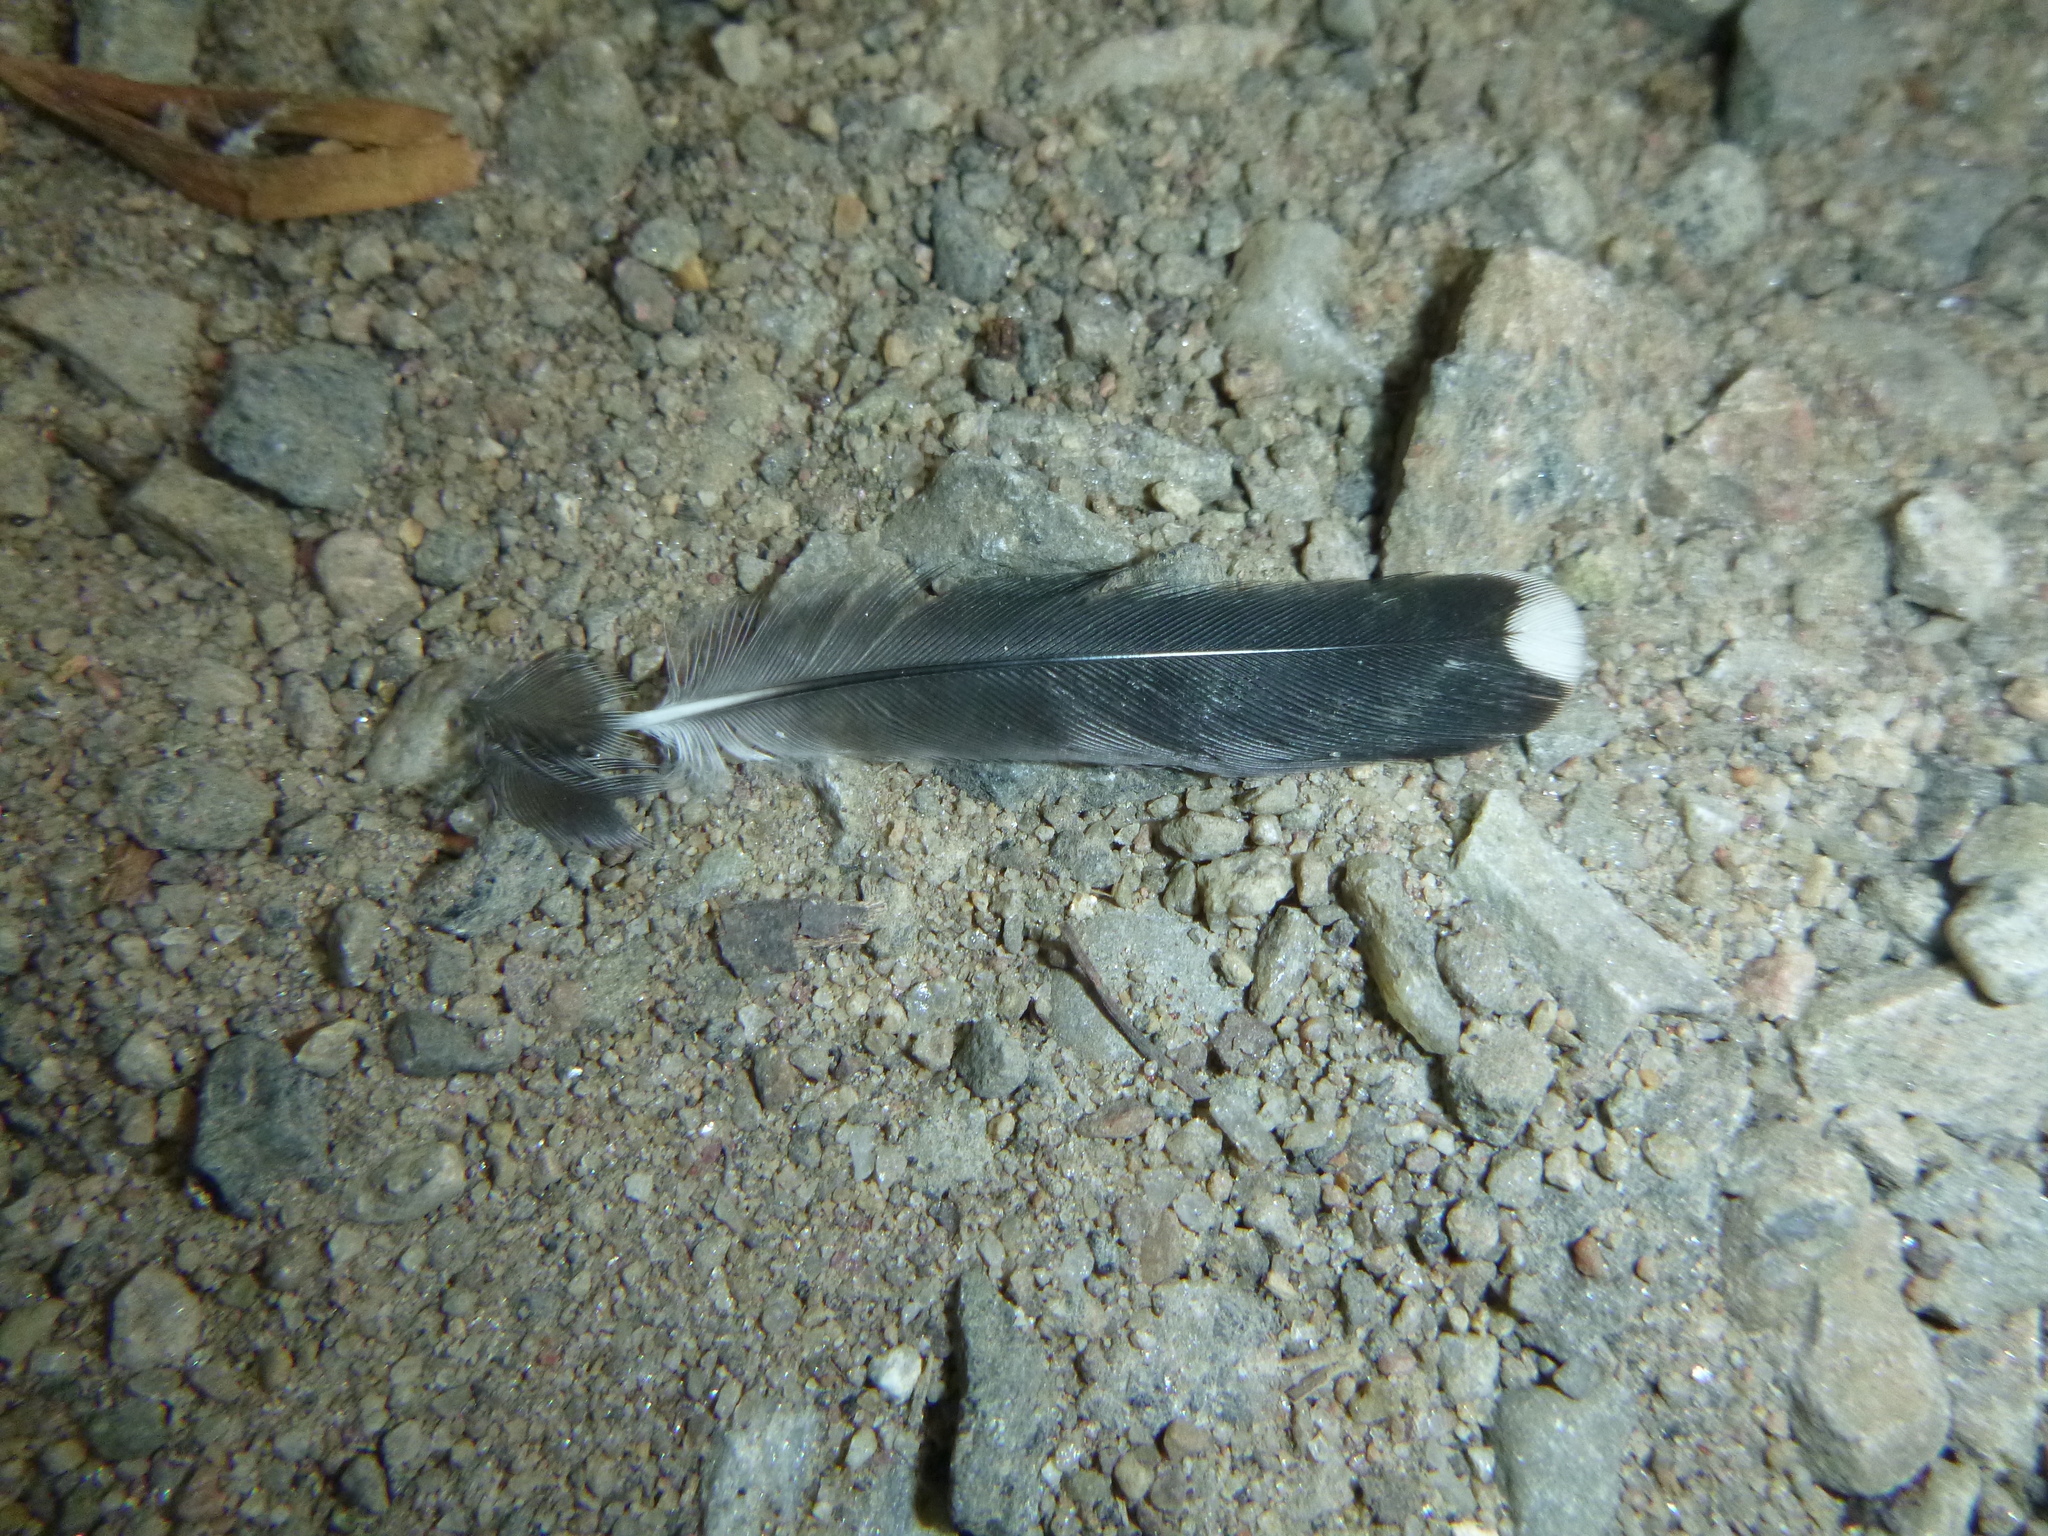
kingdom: Animalia
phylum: Chordata
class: Aves
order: Passeriformes
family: Sittidae
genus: Sitta
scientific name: Sitta carolinensis
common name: White-breasted nuthatch
